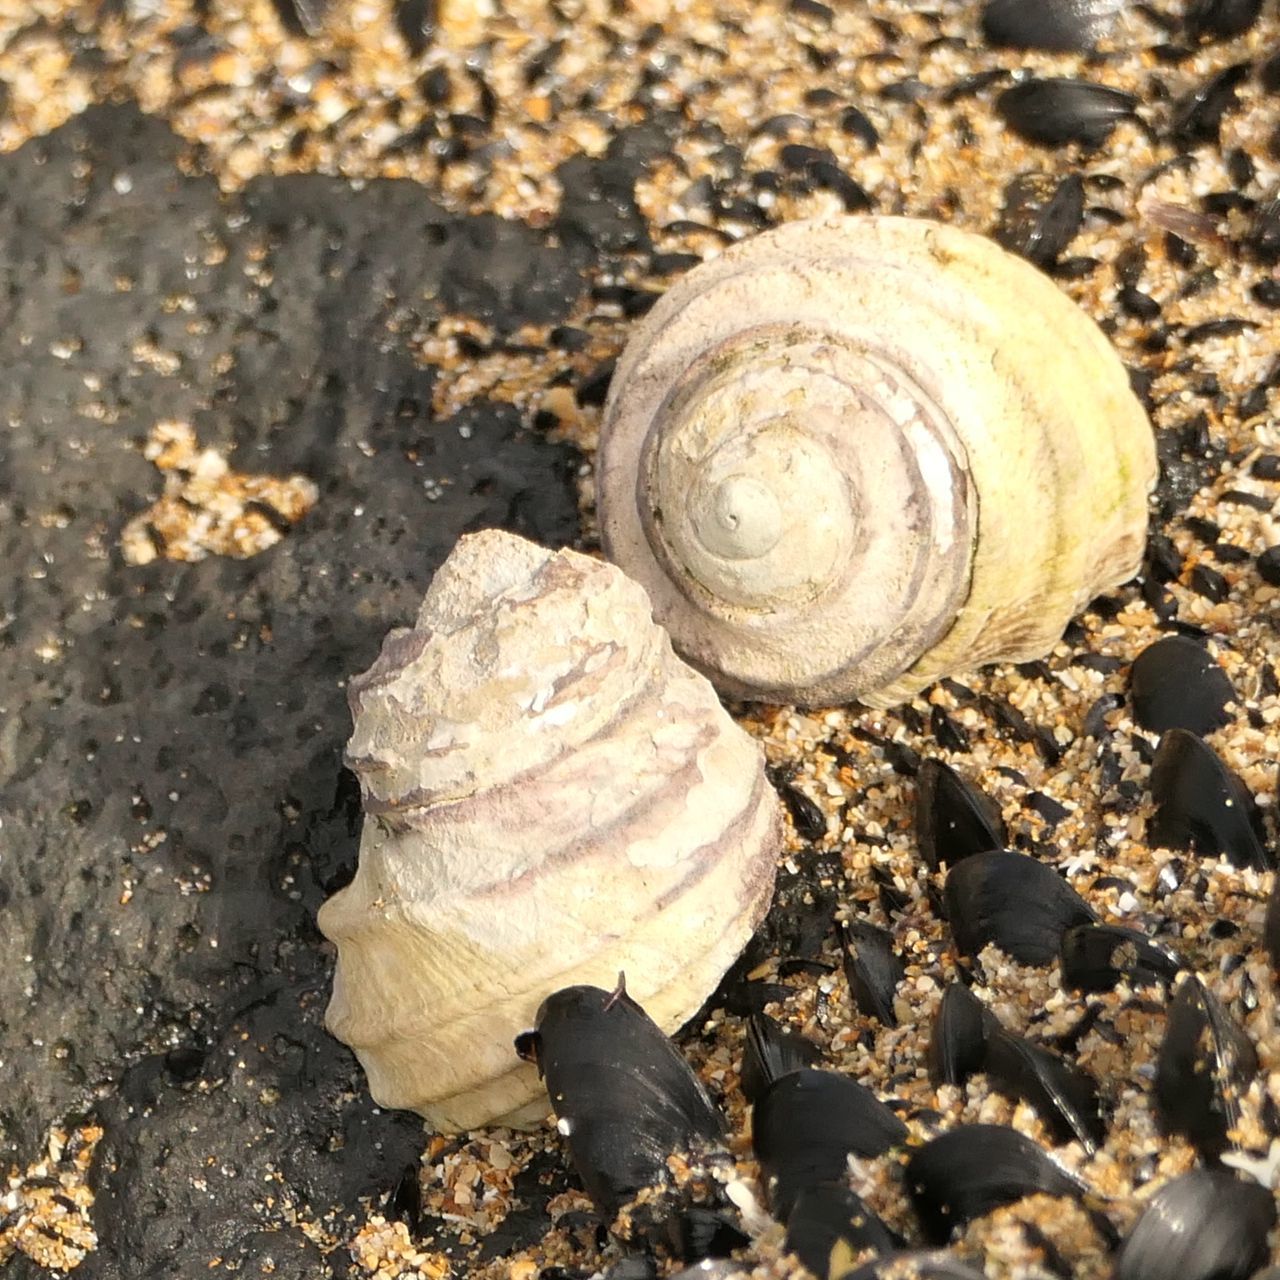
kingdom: Animalia
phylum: Mollusca
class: Gastropoda
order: Trochida
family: Trochidae
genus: Austrocochlea
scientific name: Austrocochlea constricta
